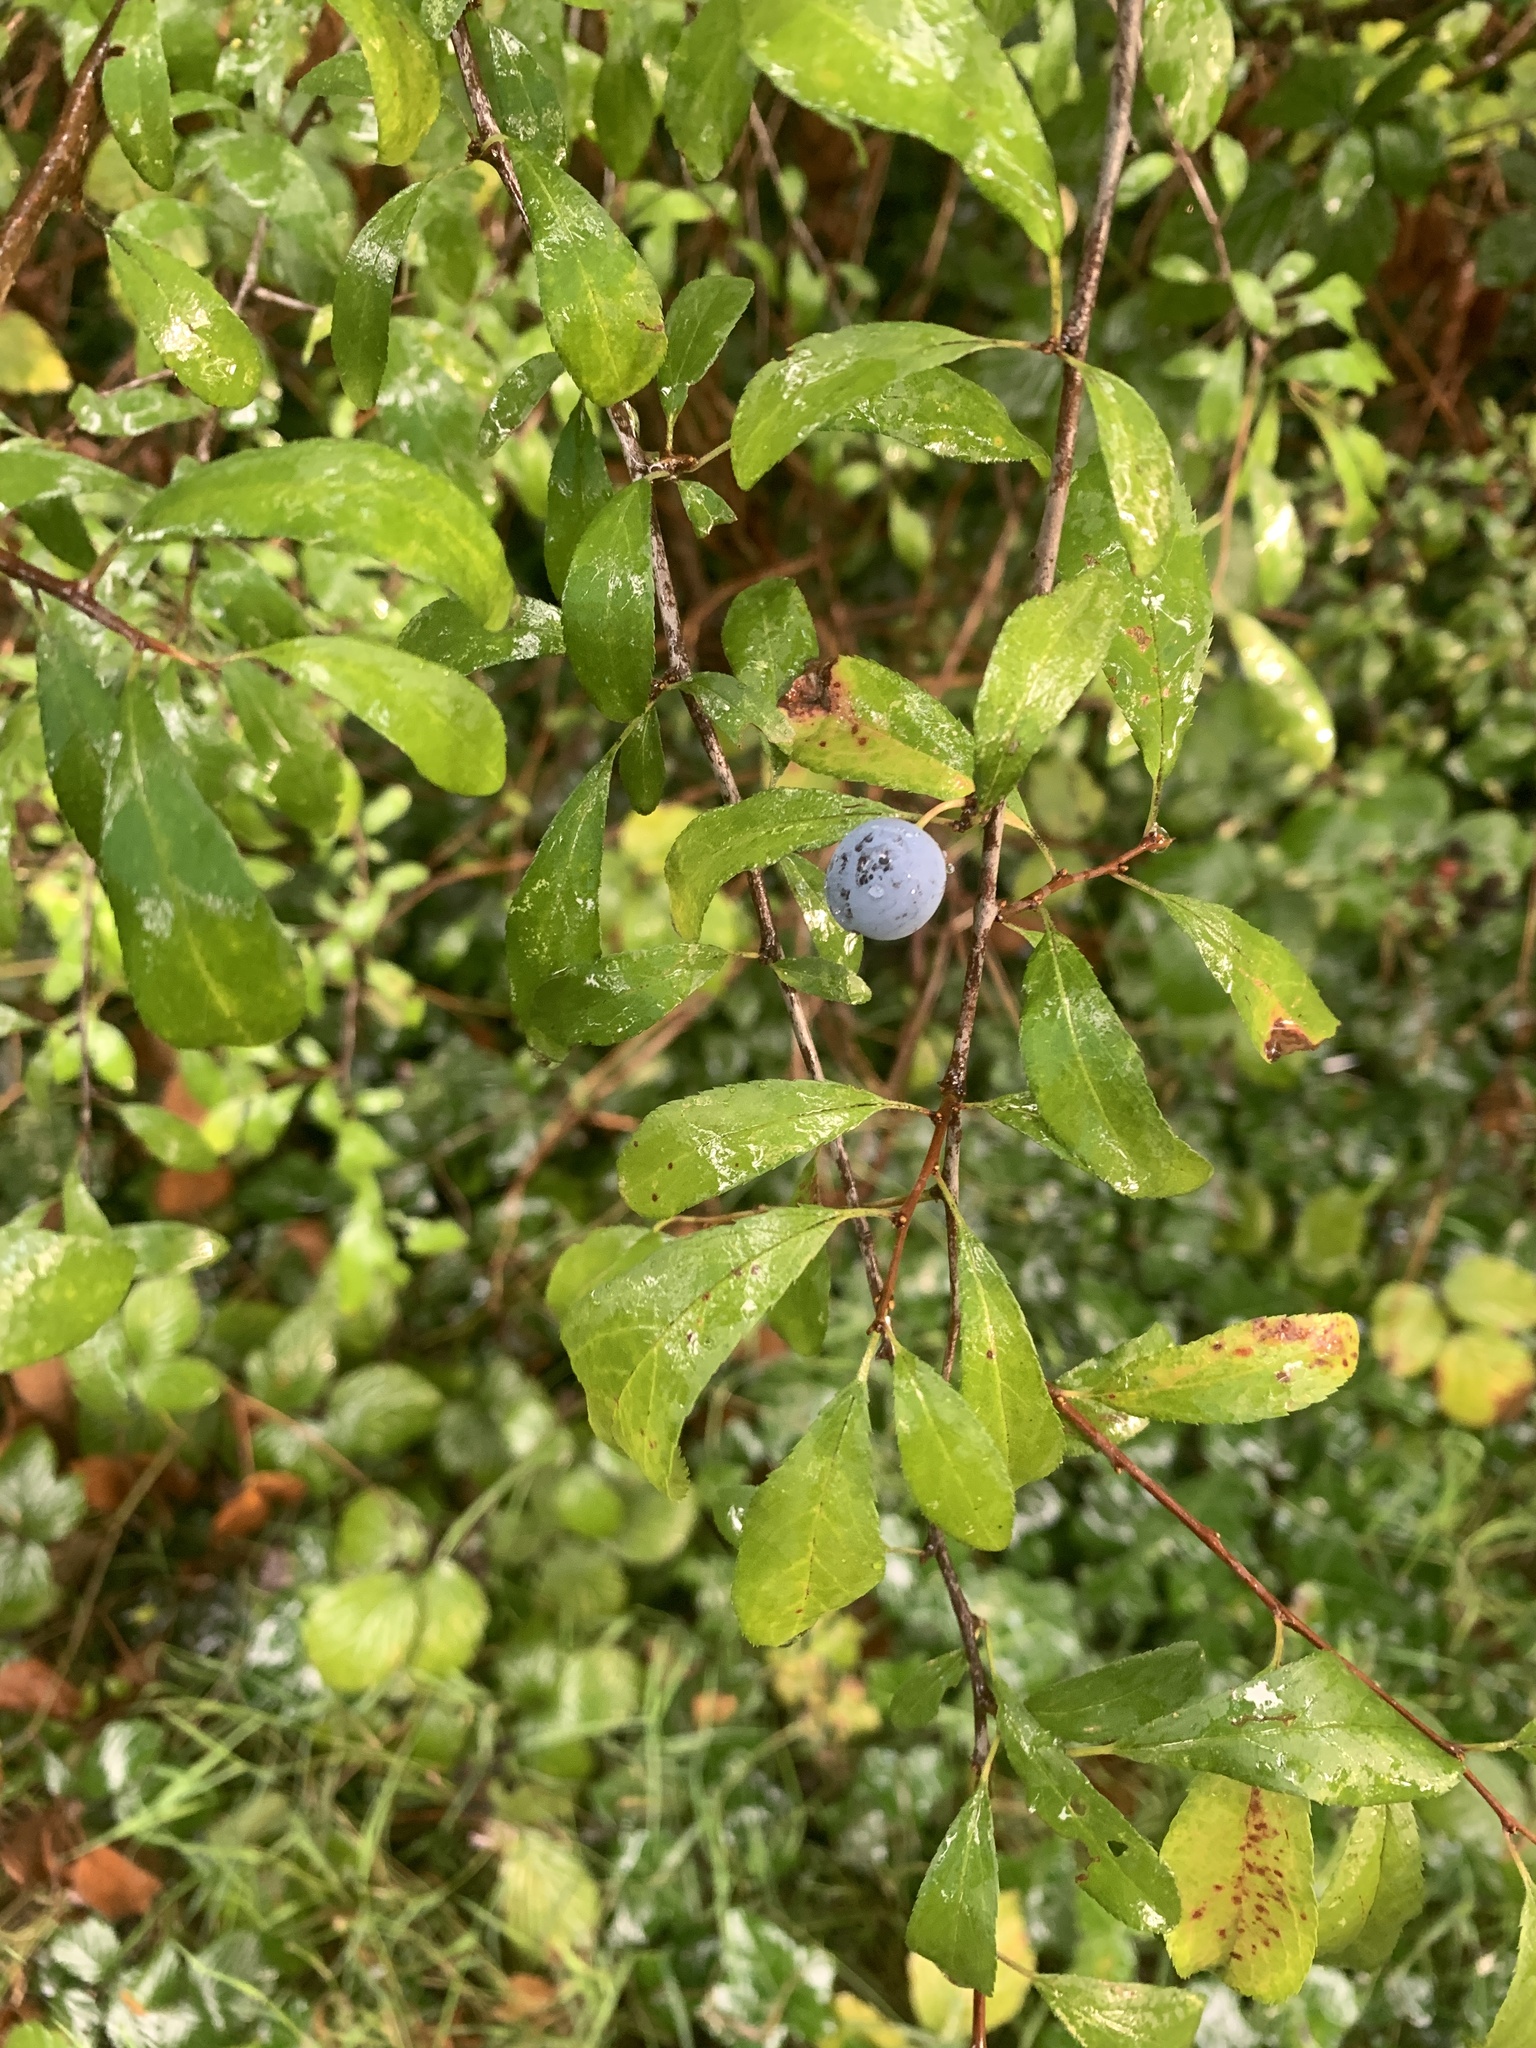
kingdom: Plantae
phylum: Tracheophyta
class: Magnoliopsida
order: Rosales
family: Rosaceae
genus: Prunus
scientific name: Prunus spinosa
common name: Blackthorn
